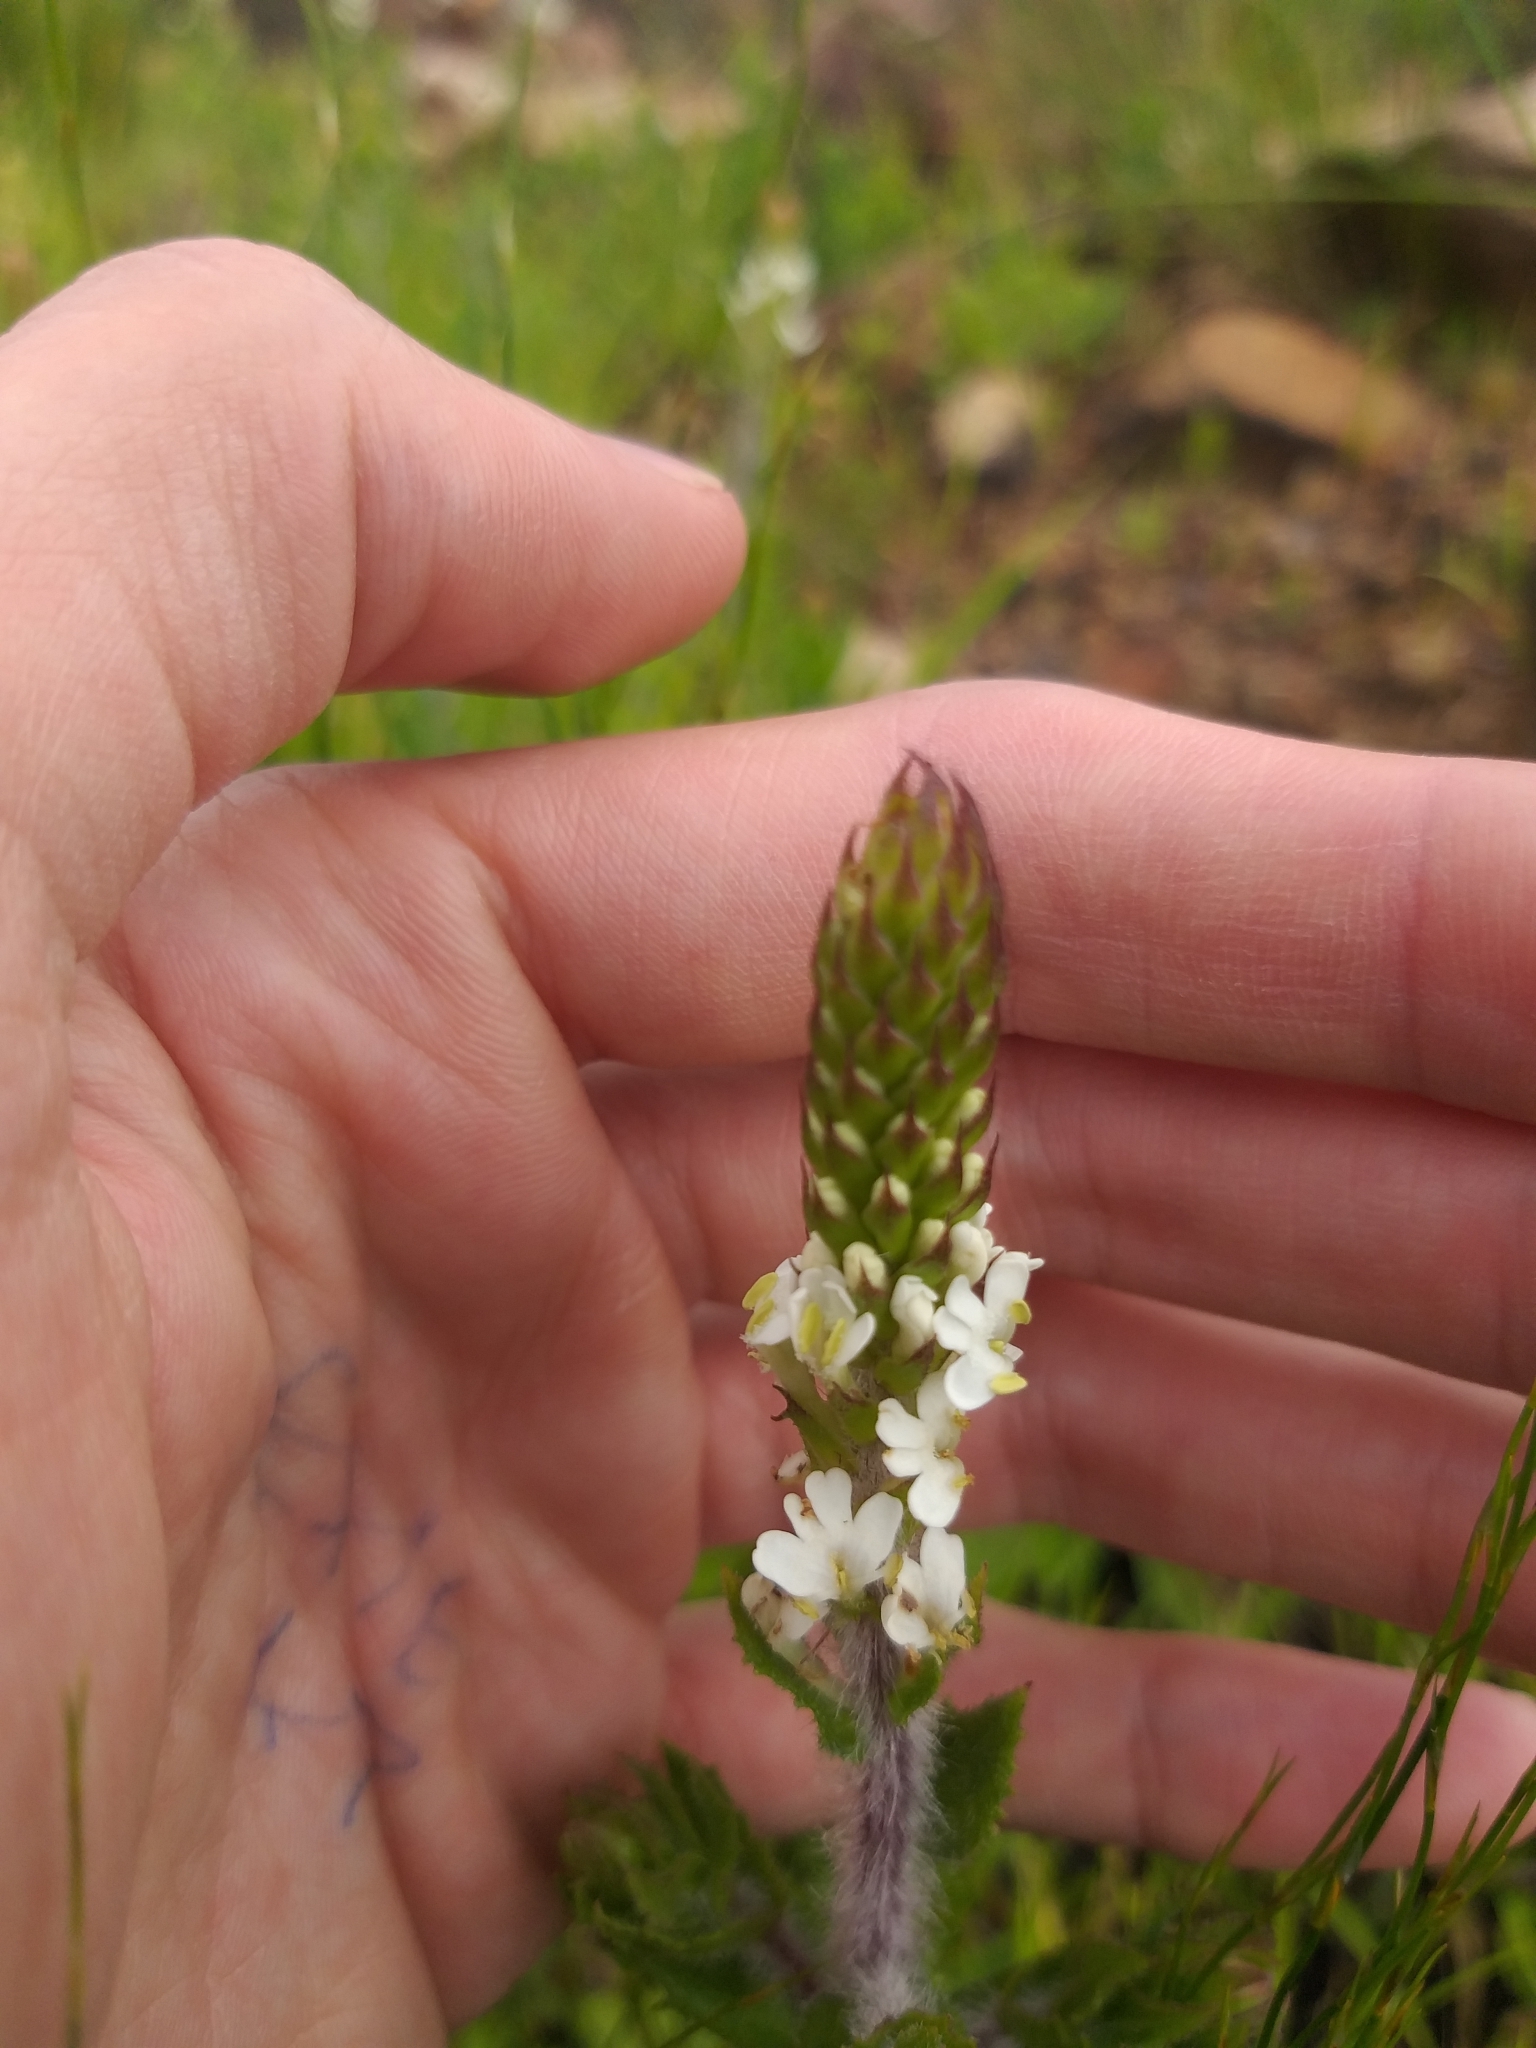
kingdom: Plantae
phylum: Tracheophyta
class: Magnoliopsida
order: Lamiales
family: Scrophulariaceae
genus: Hebenstretia
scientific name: Hebenstretia lanceolata
